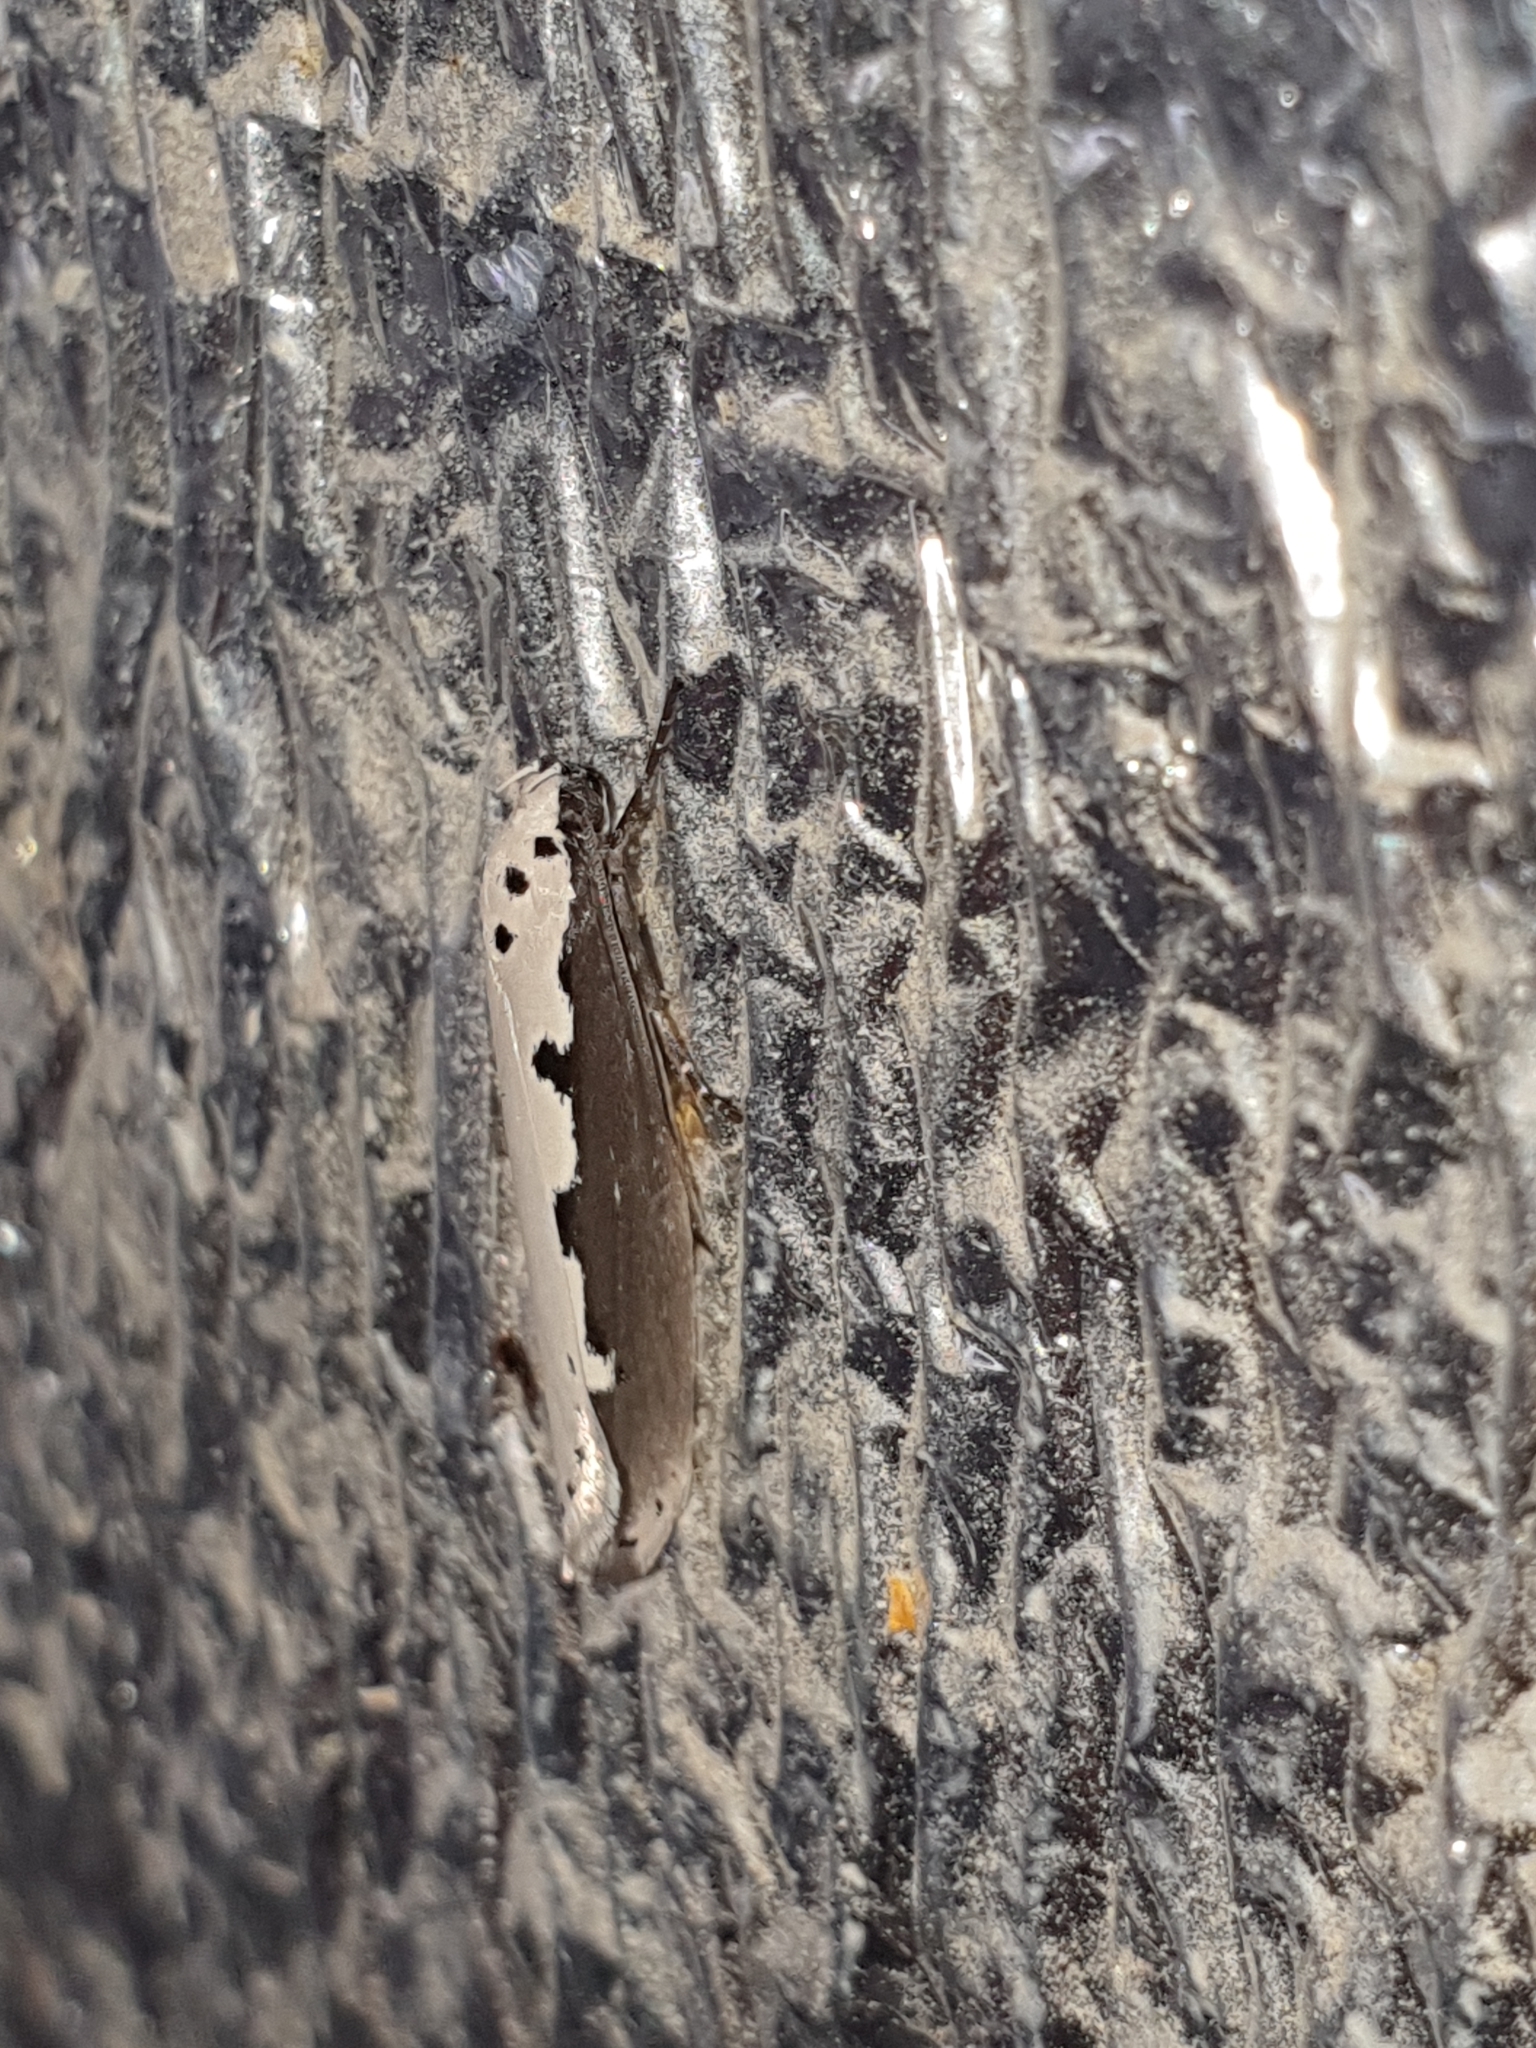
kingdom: Animalia
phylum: Arthropoda
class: Insecta
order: Lepidoptera
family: Ethmiidae
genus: Ethmia
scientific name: Ethmia bipunctella
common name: Bordered ermel
